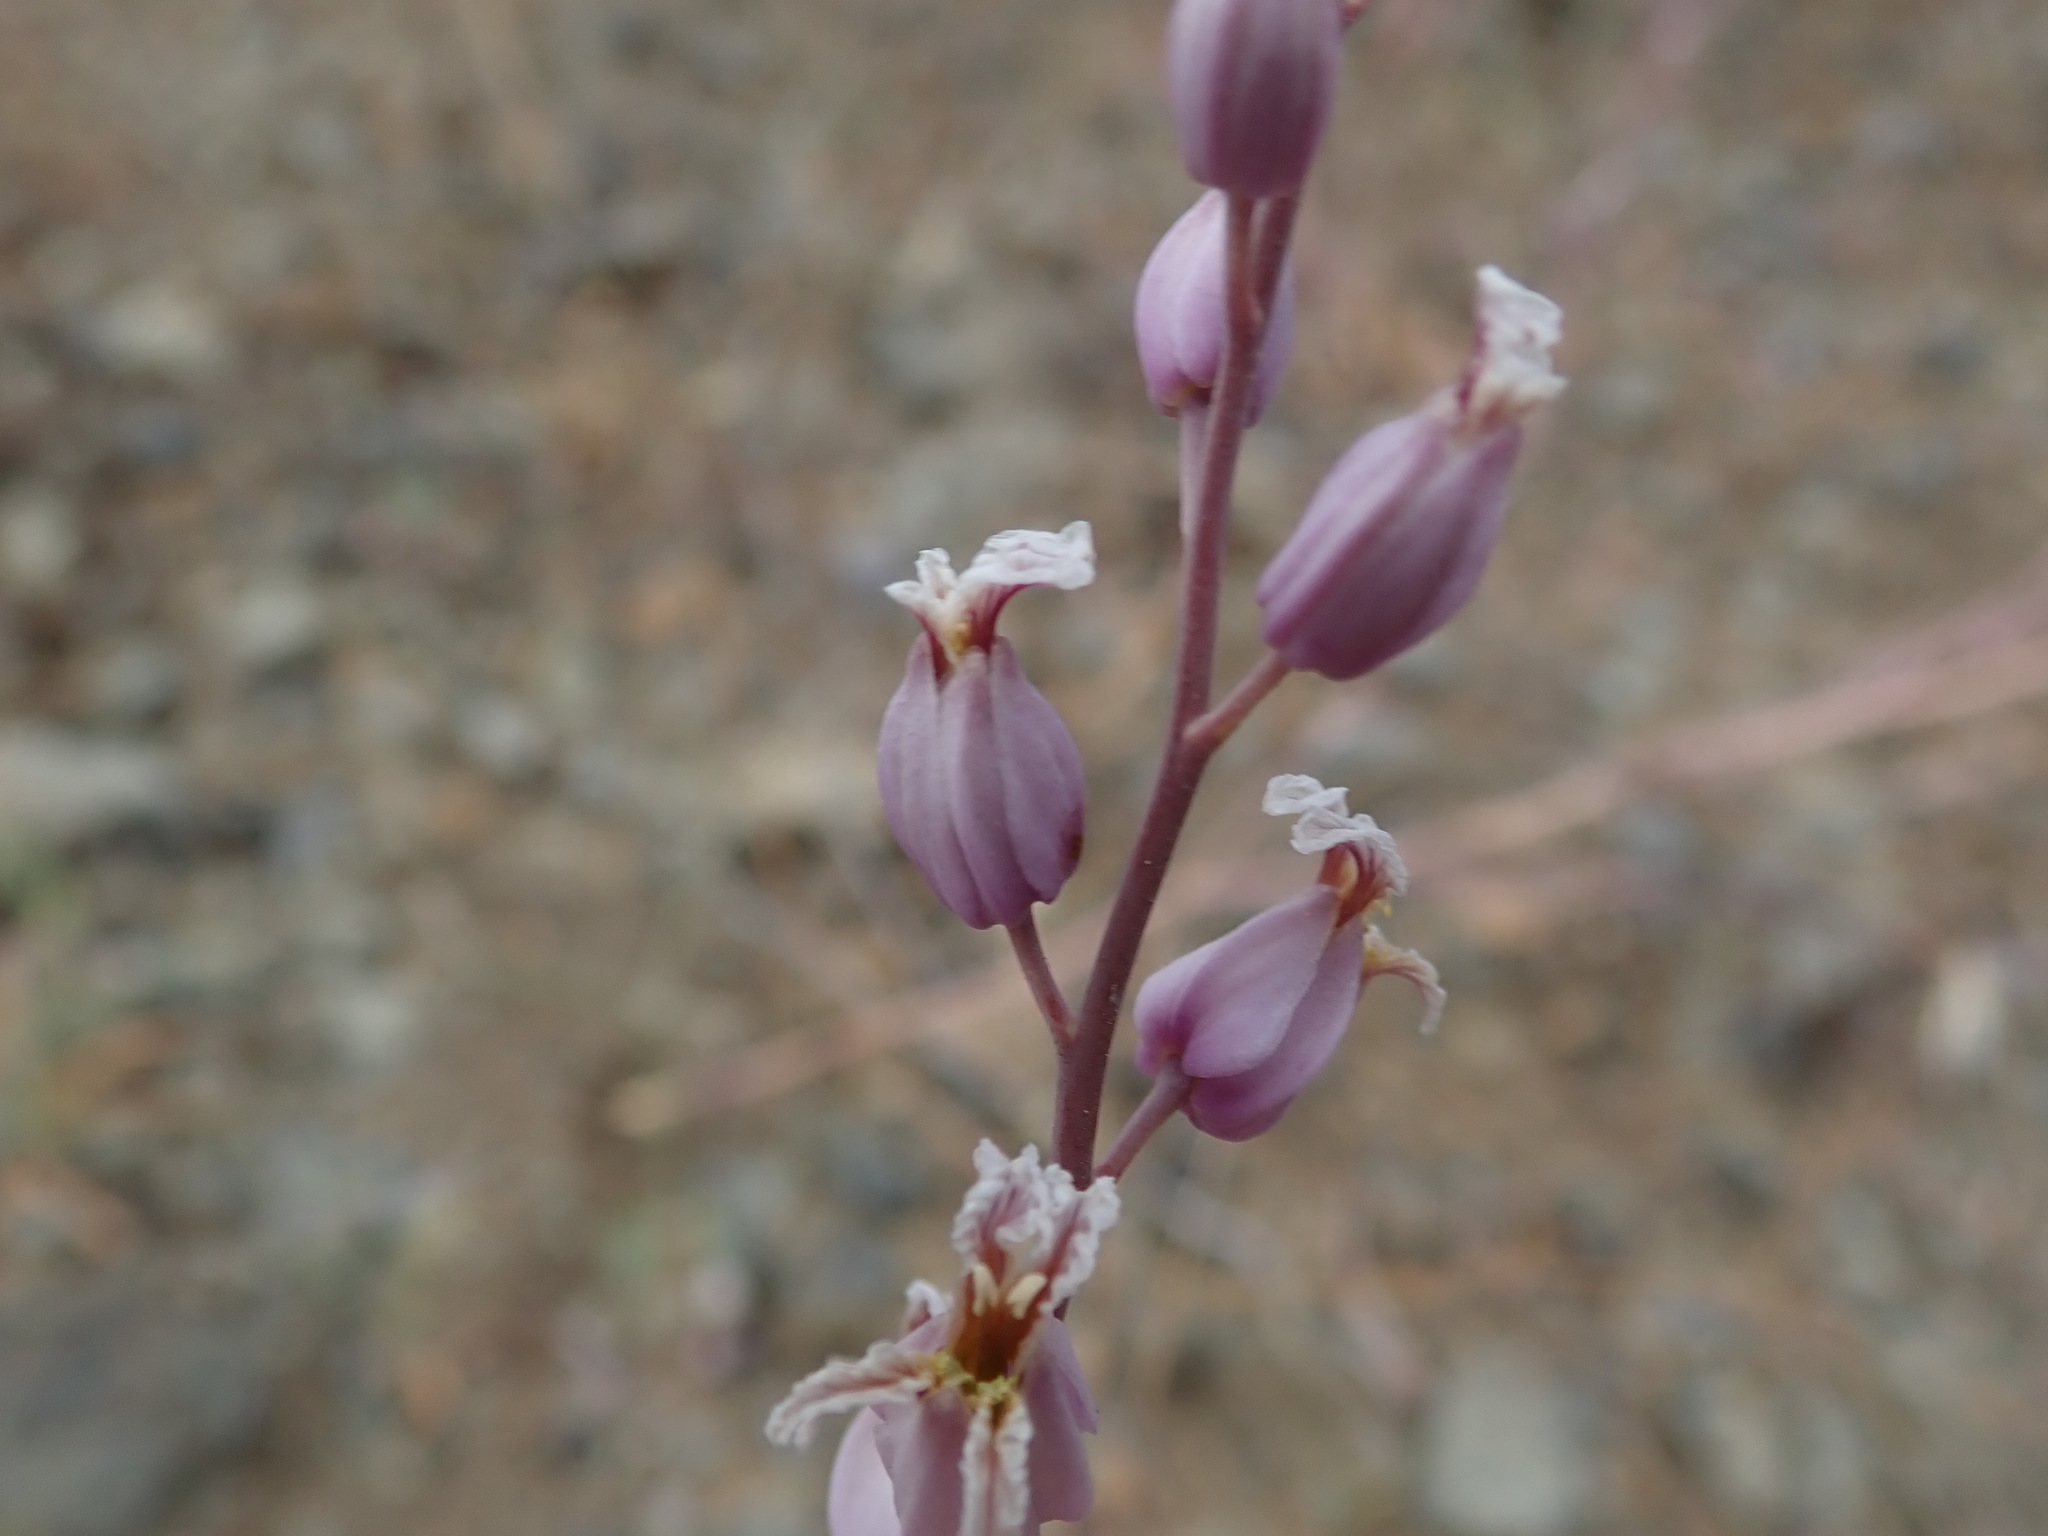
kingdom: Plantae
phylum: Tracheophyta
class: Magnoliopsida
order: Brassicales
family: Brassicaceae
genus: Streptanthus
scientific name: Streptanthus glandulosus
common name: Jewel-flower
